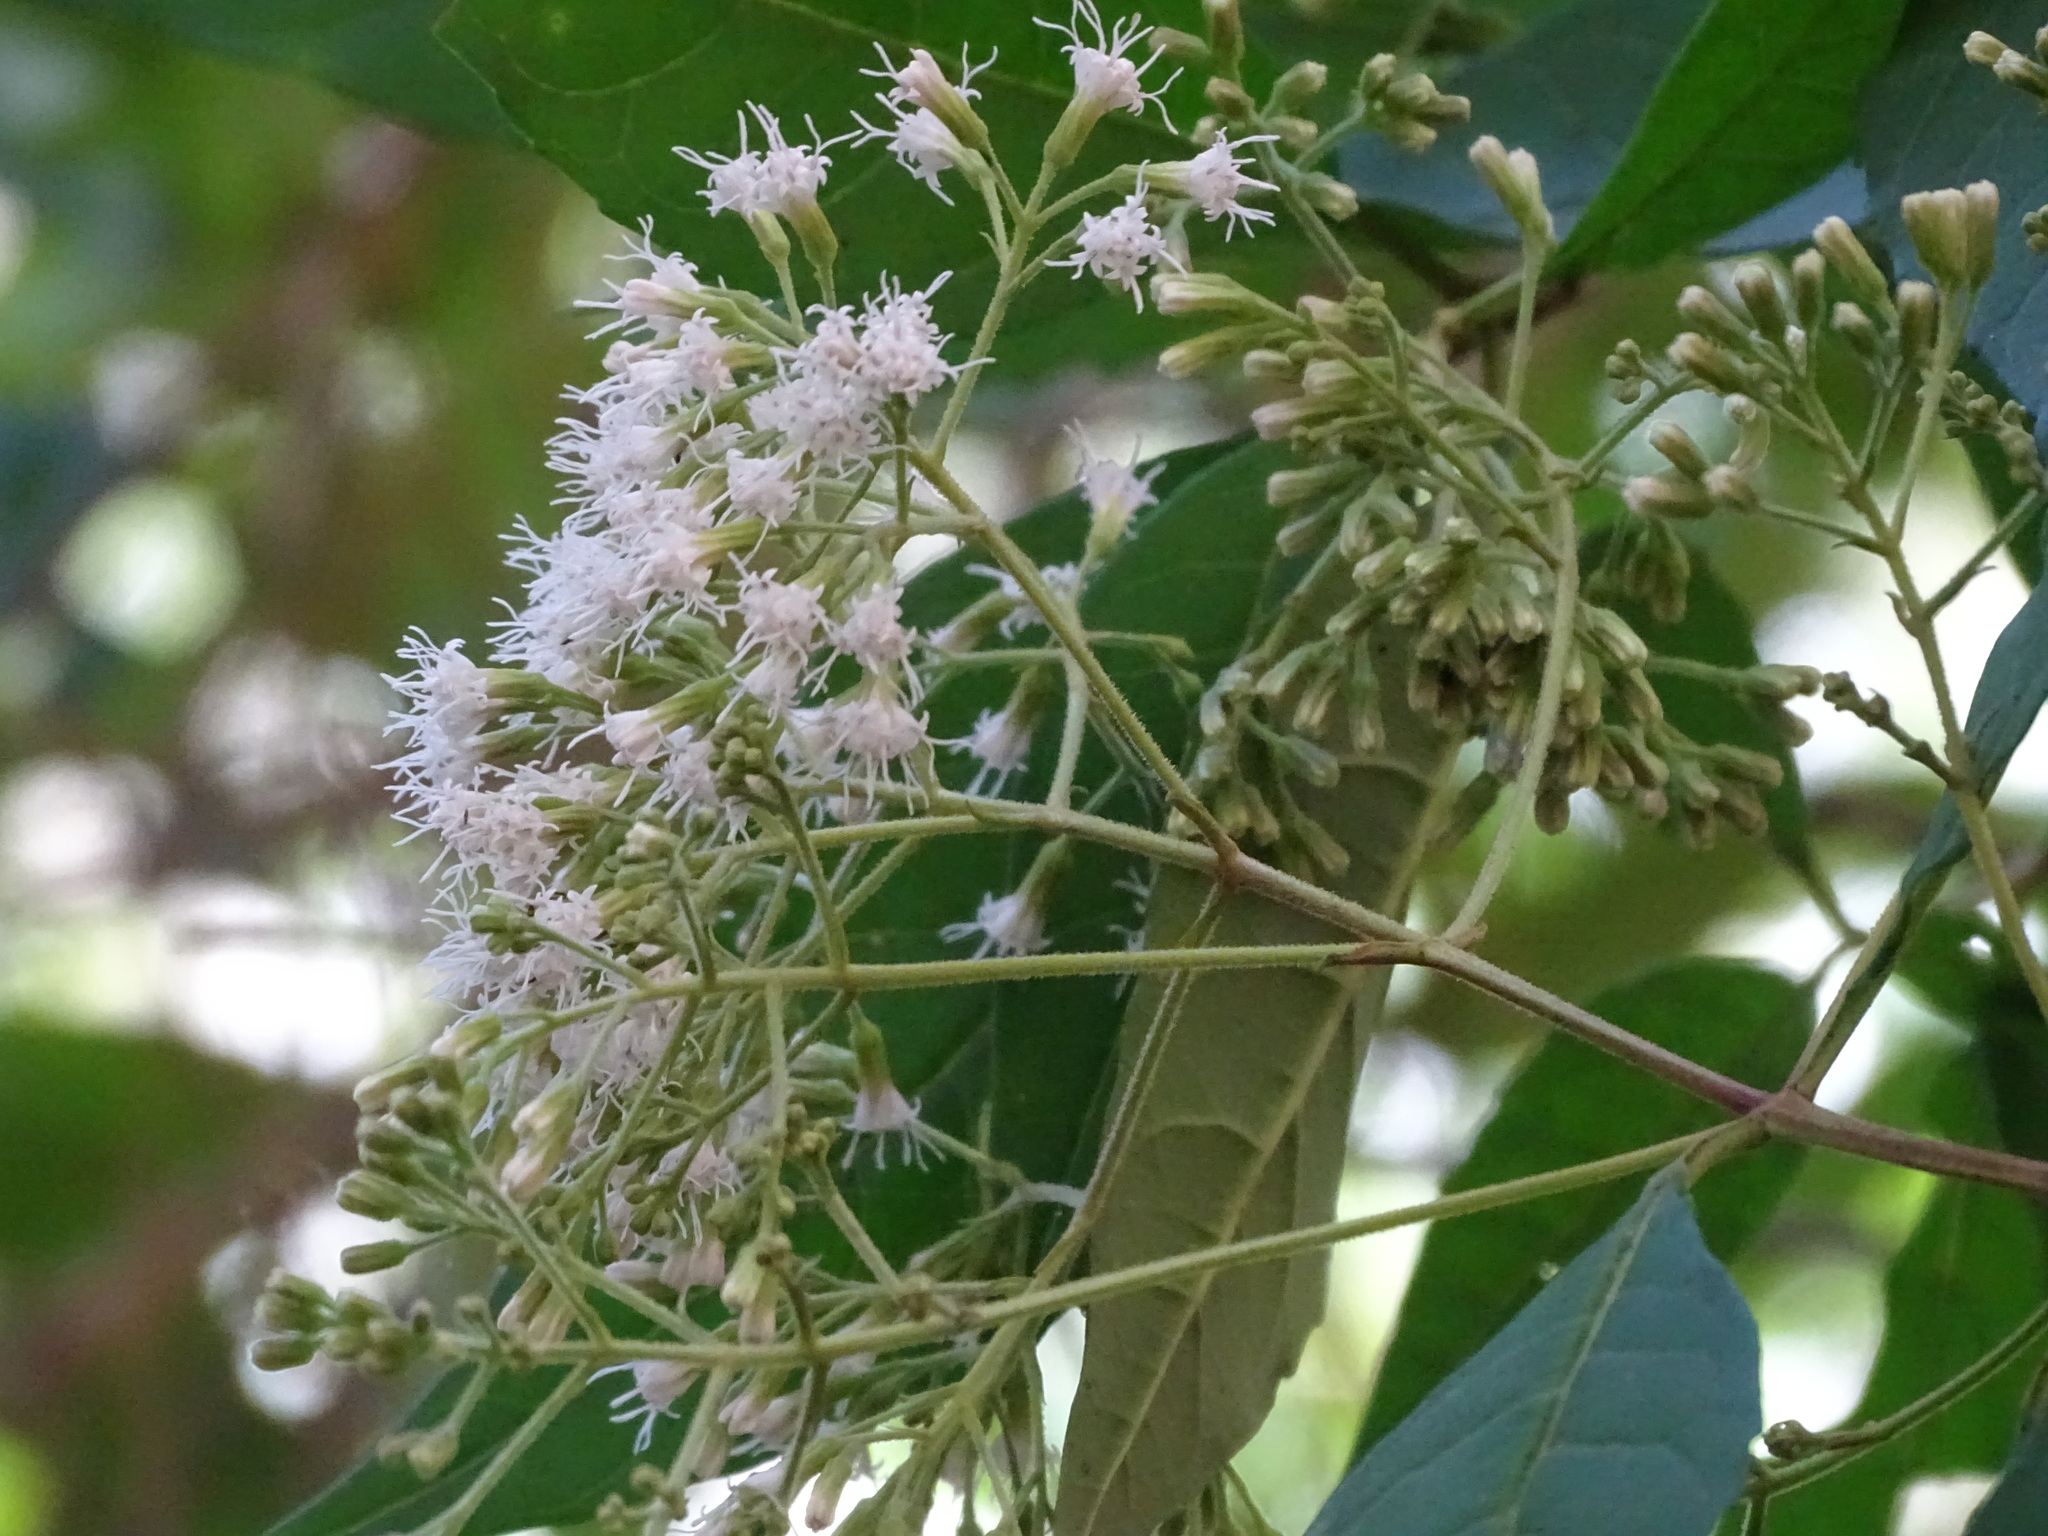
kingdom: Plantae
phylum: Tracheophyta
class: Magnoliopsida
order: Asterales
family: Asteraceae
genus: Ageratina
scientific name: Ageratina ligustrina
